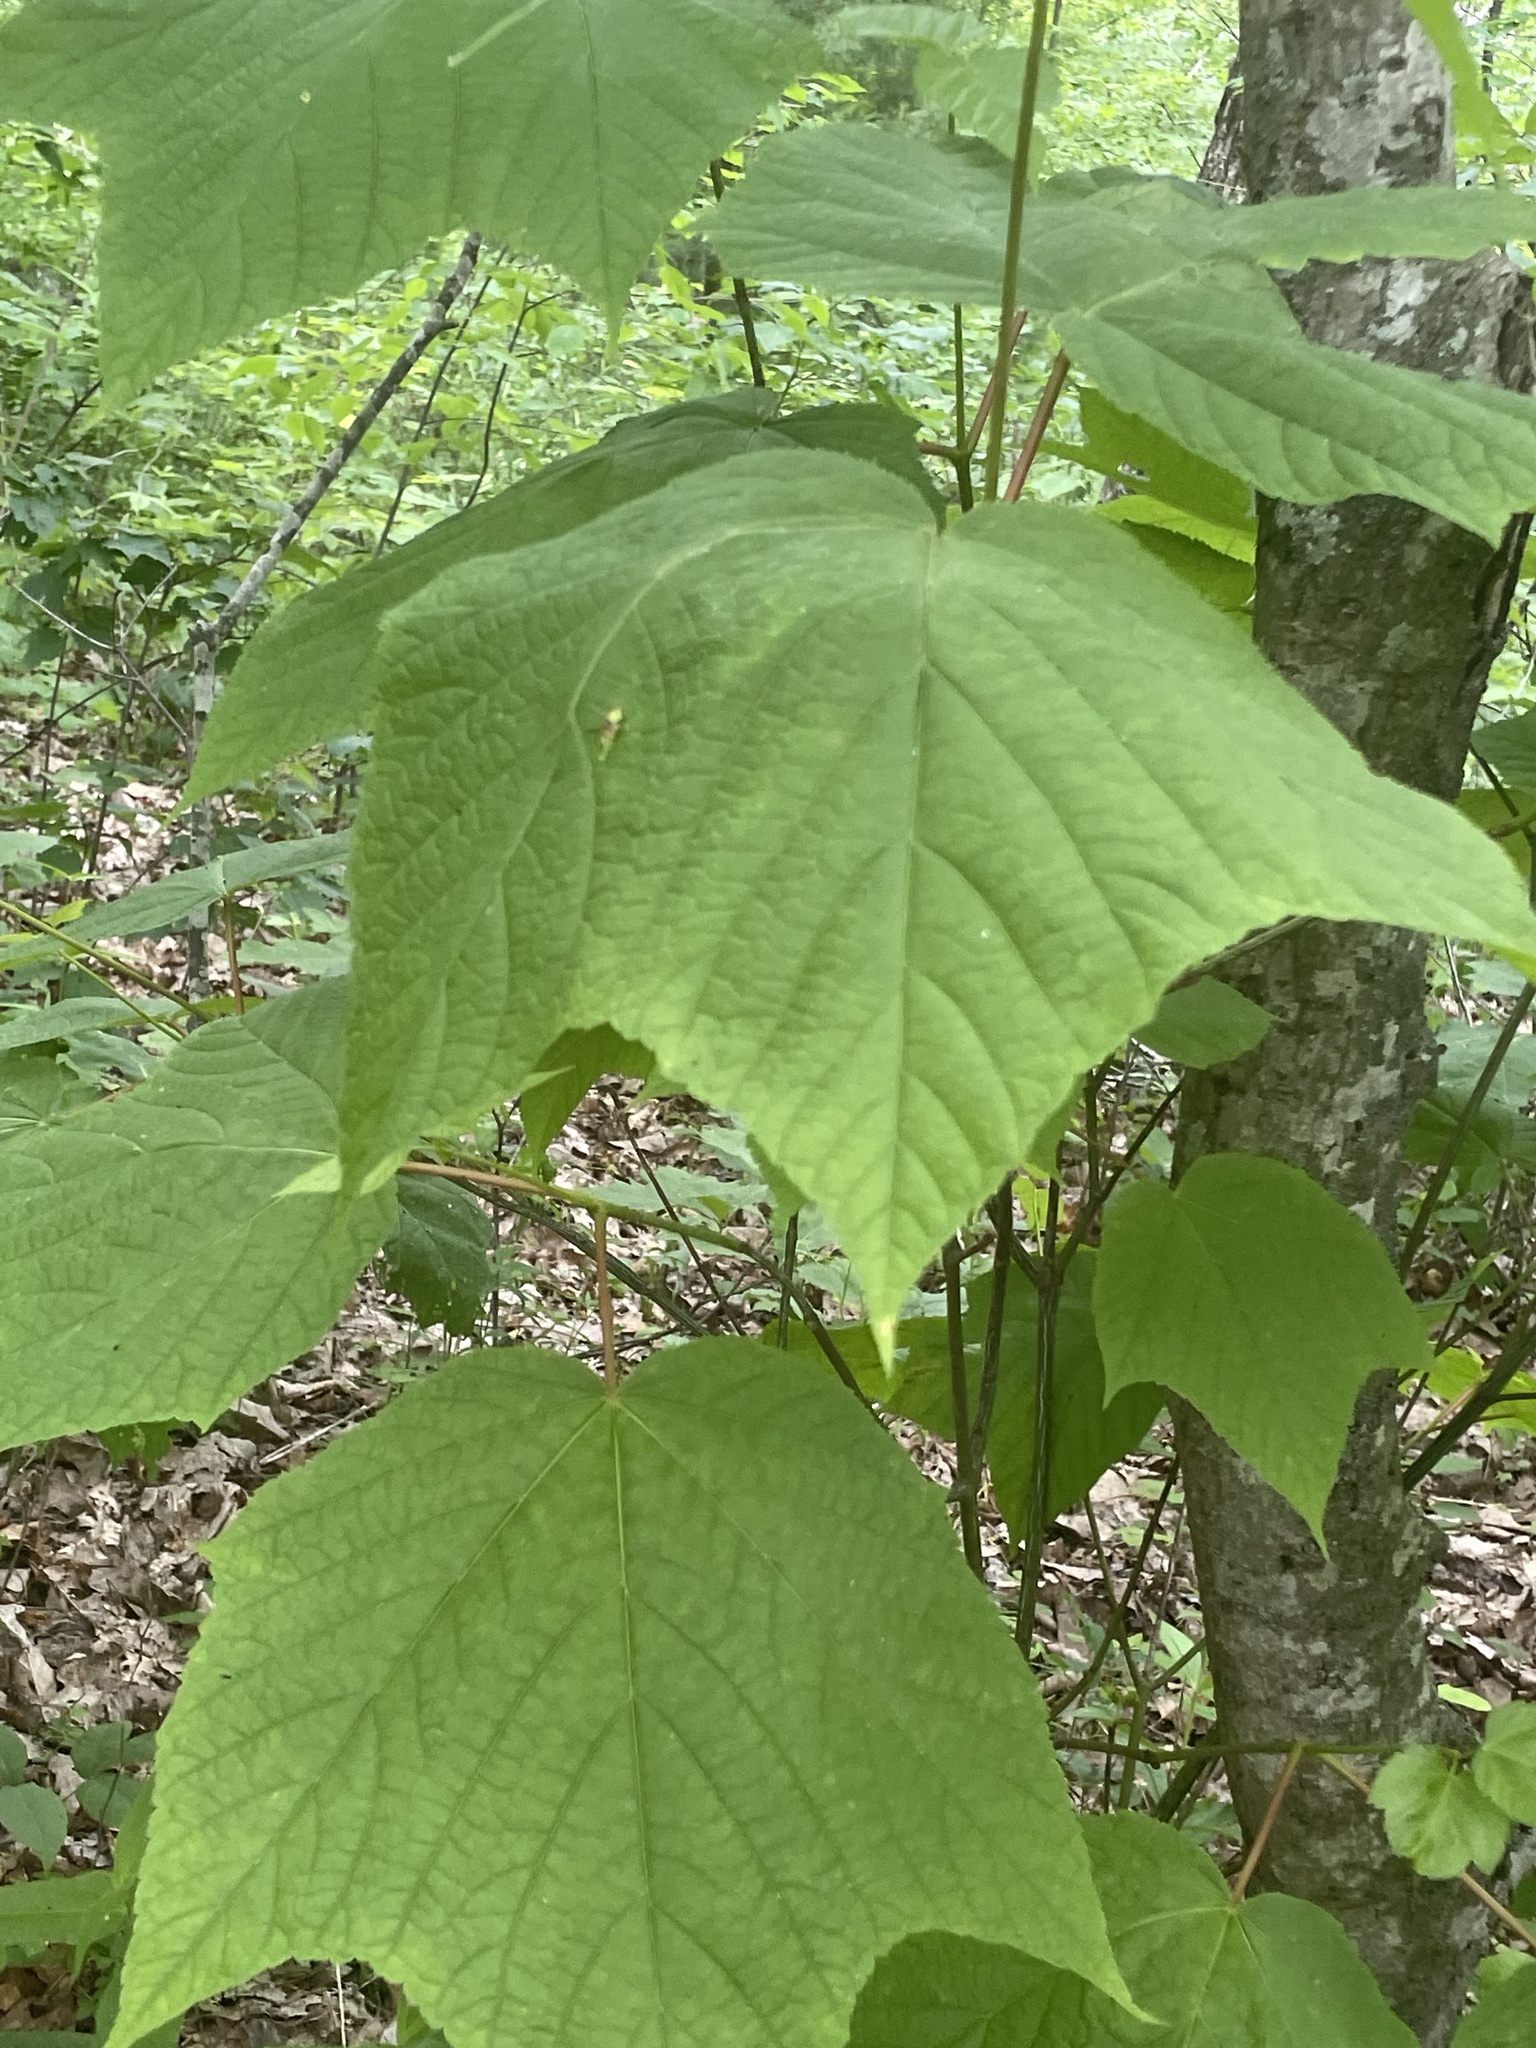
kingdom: Plantae
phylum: Tracheophyta
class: Magnoliopsida
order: Sapindales
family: Sapindaceae
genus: Acer
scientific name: Acer pensylvanicum
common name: Moosewood
